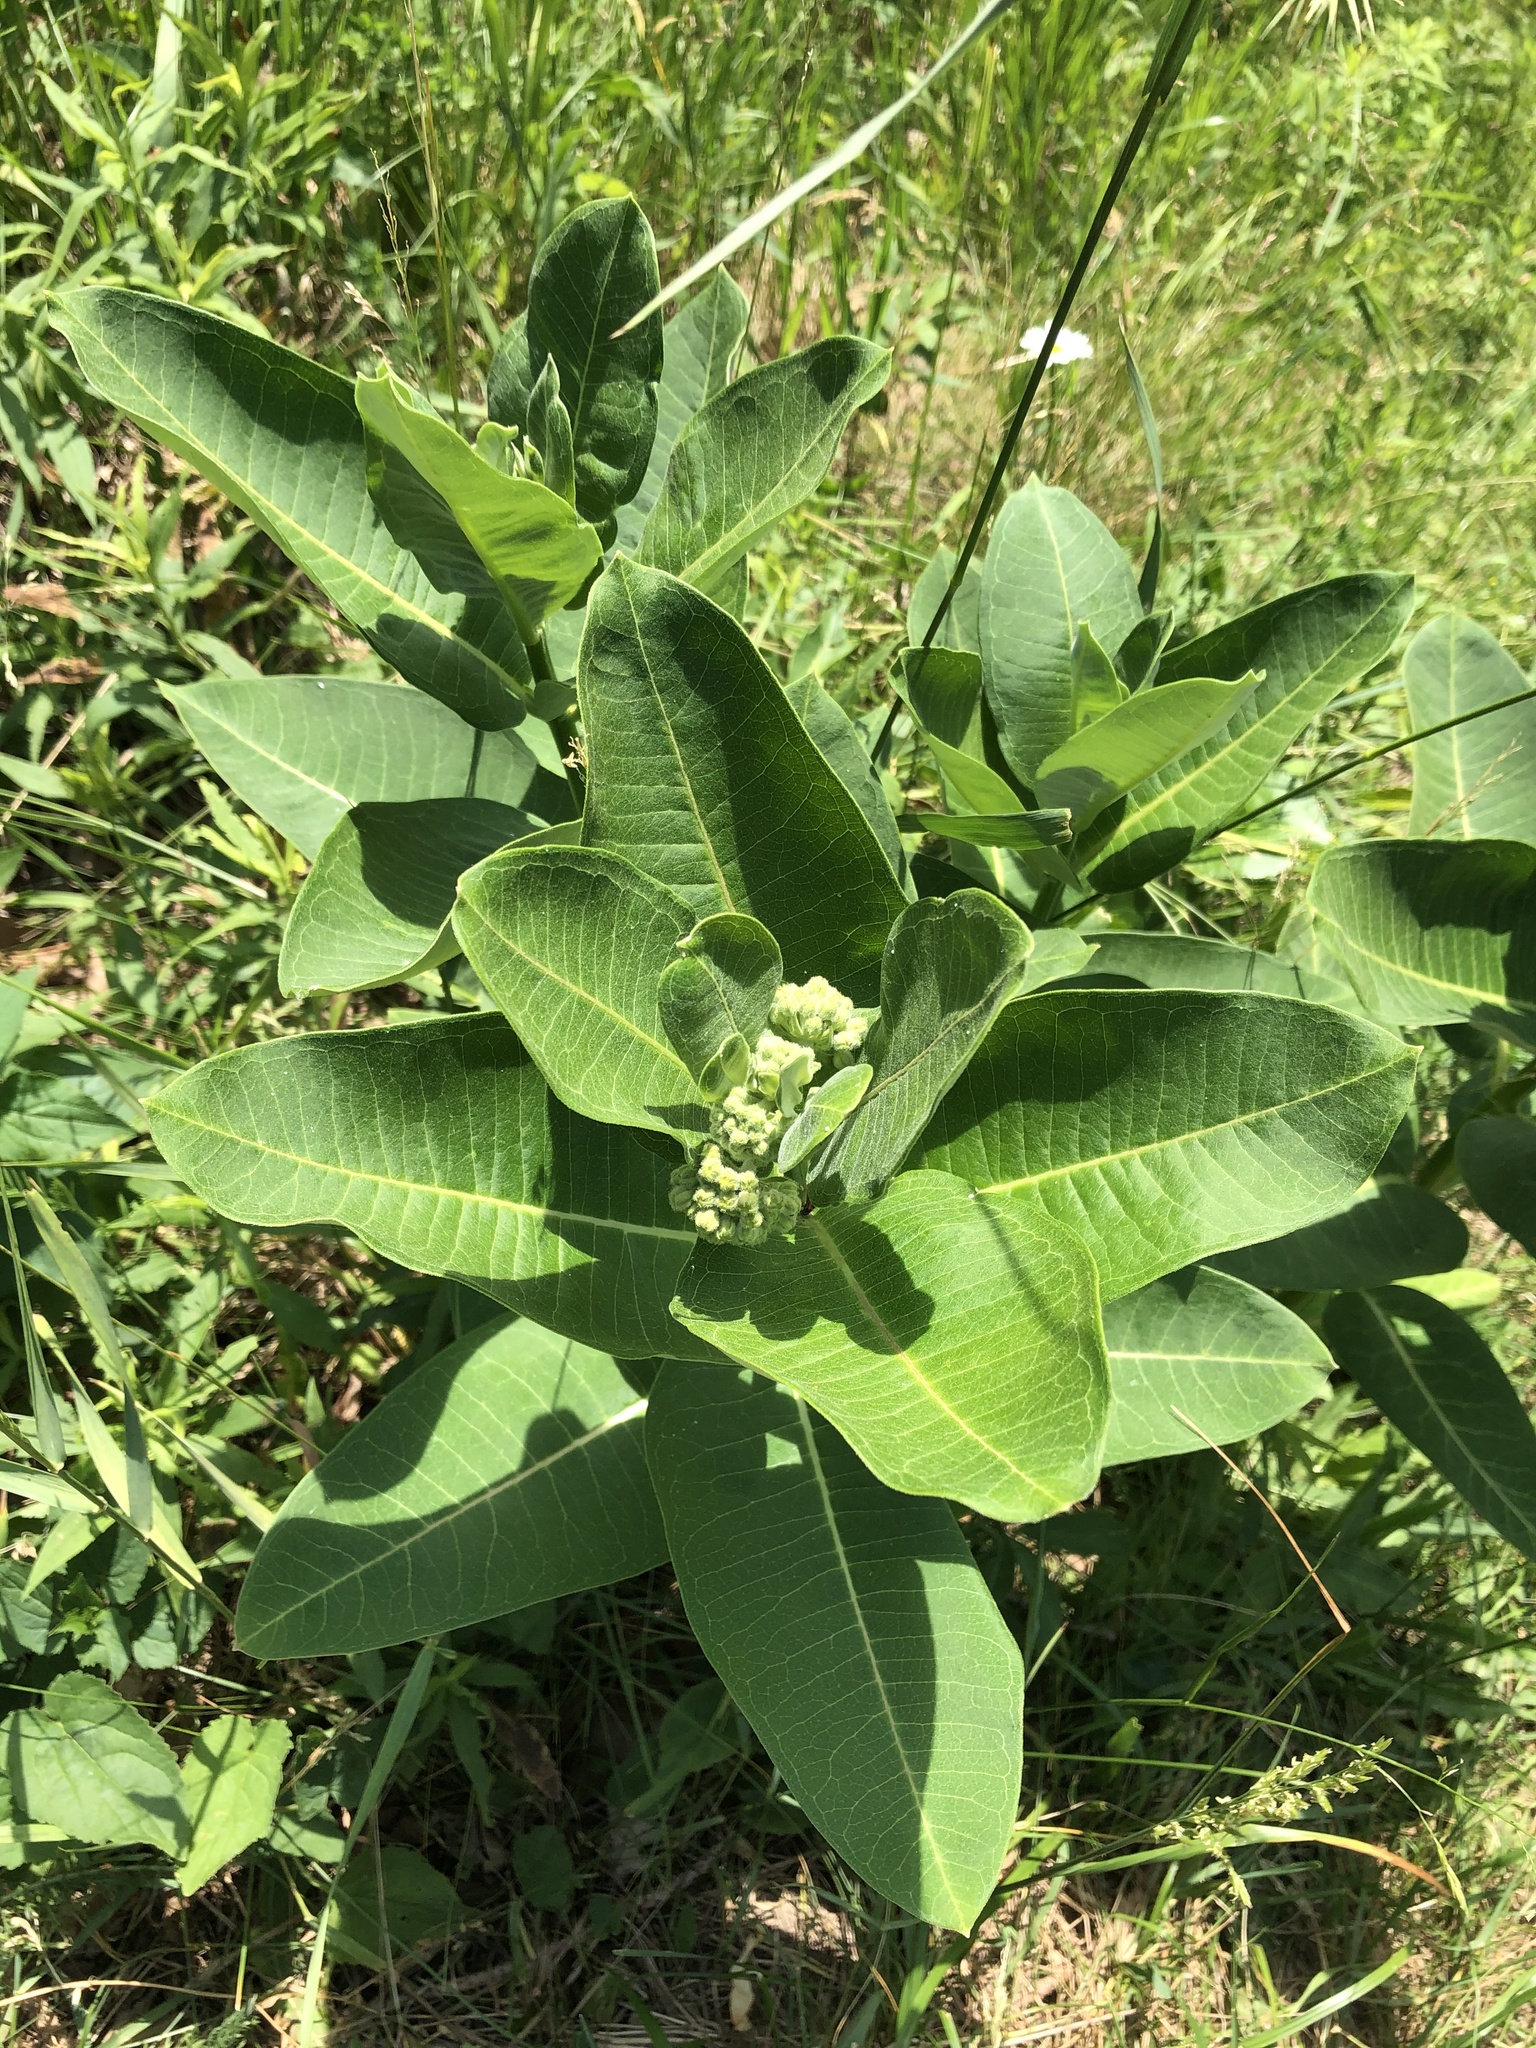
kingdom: Plantae
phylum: Tracheophyta
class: Magnoliopsida
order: Gentianales
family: Apocynaceae
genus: Asclepias
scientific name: Asclepias syriaca
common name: Common milkweed
